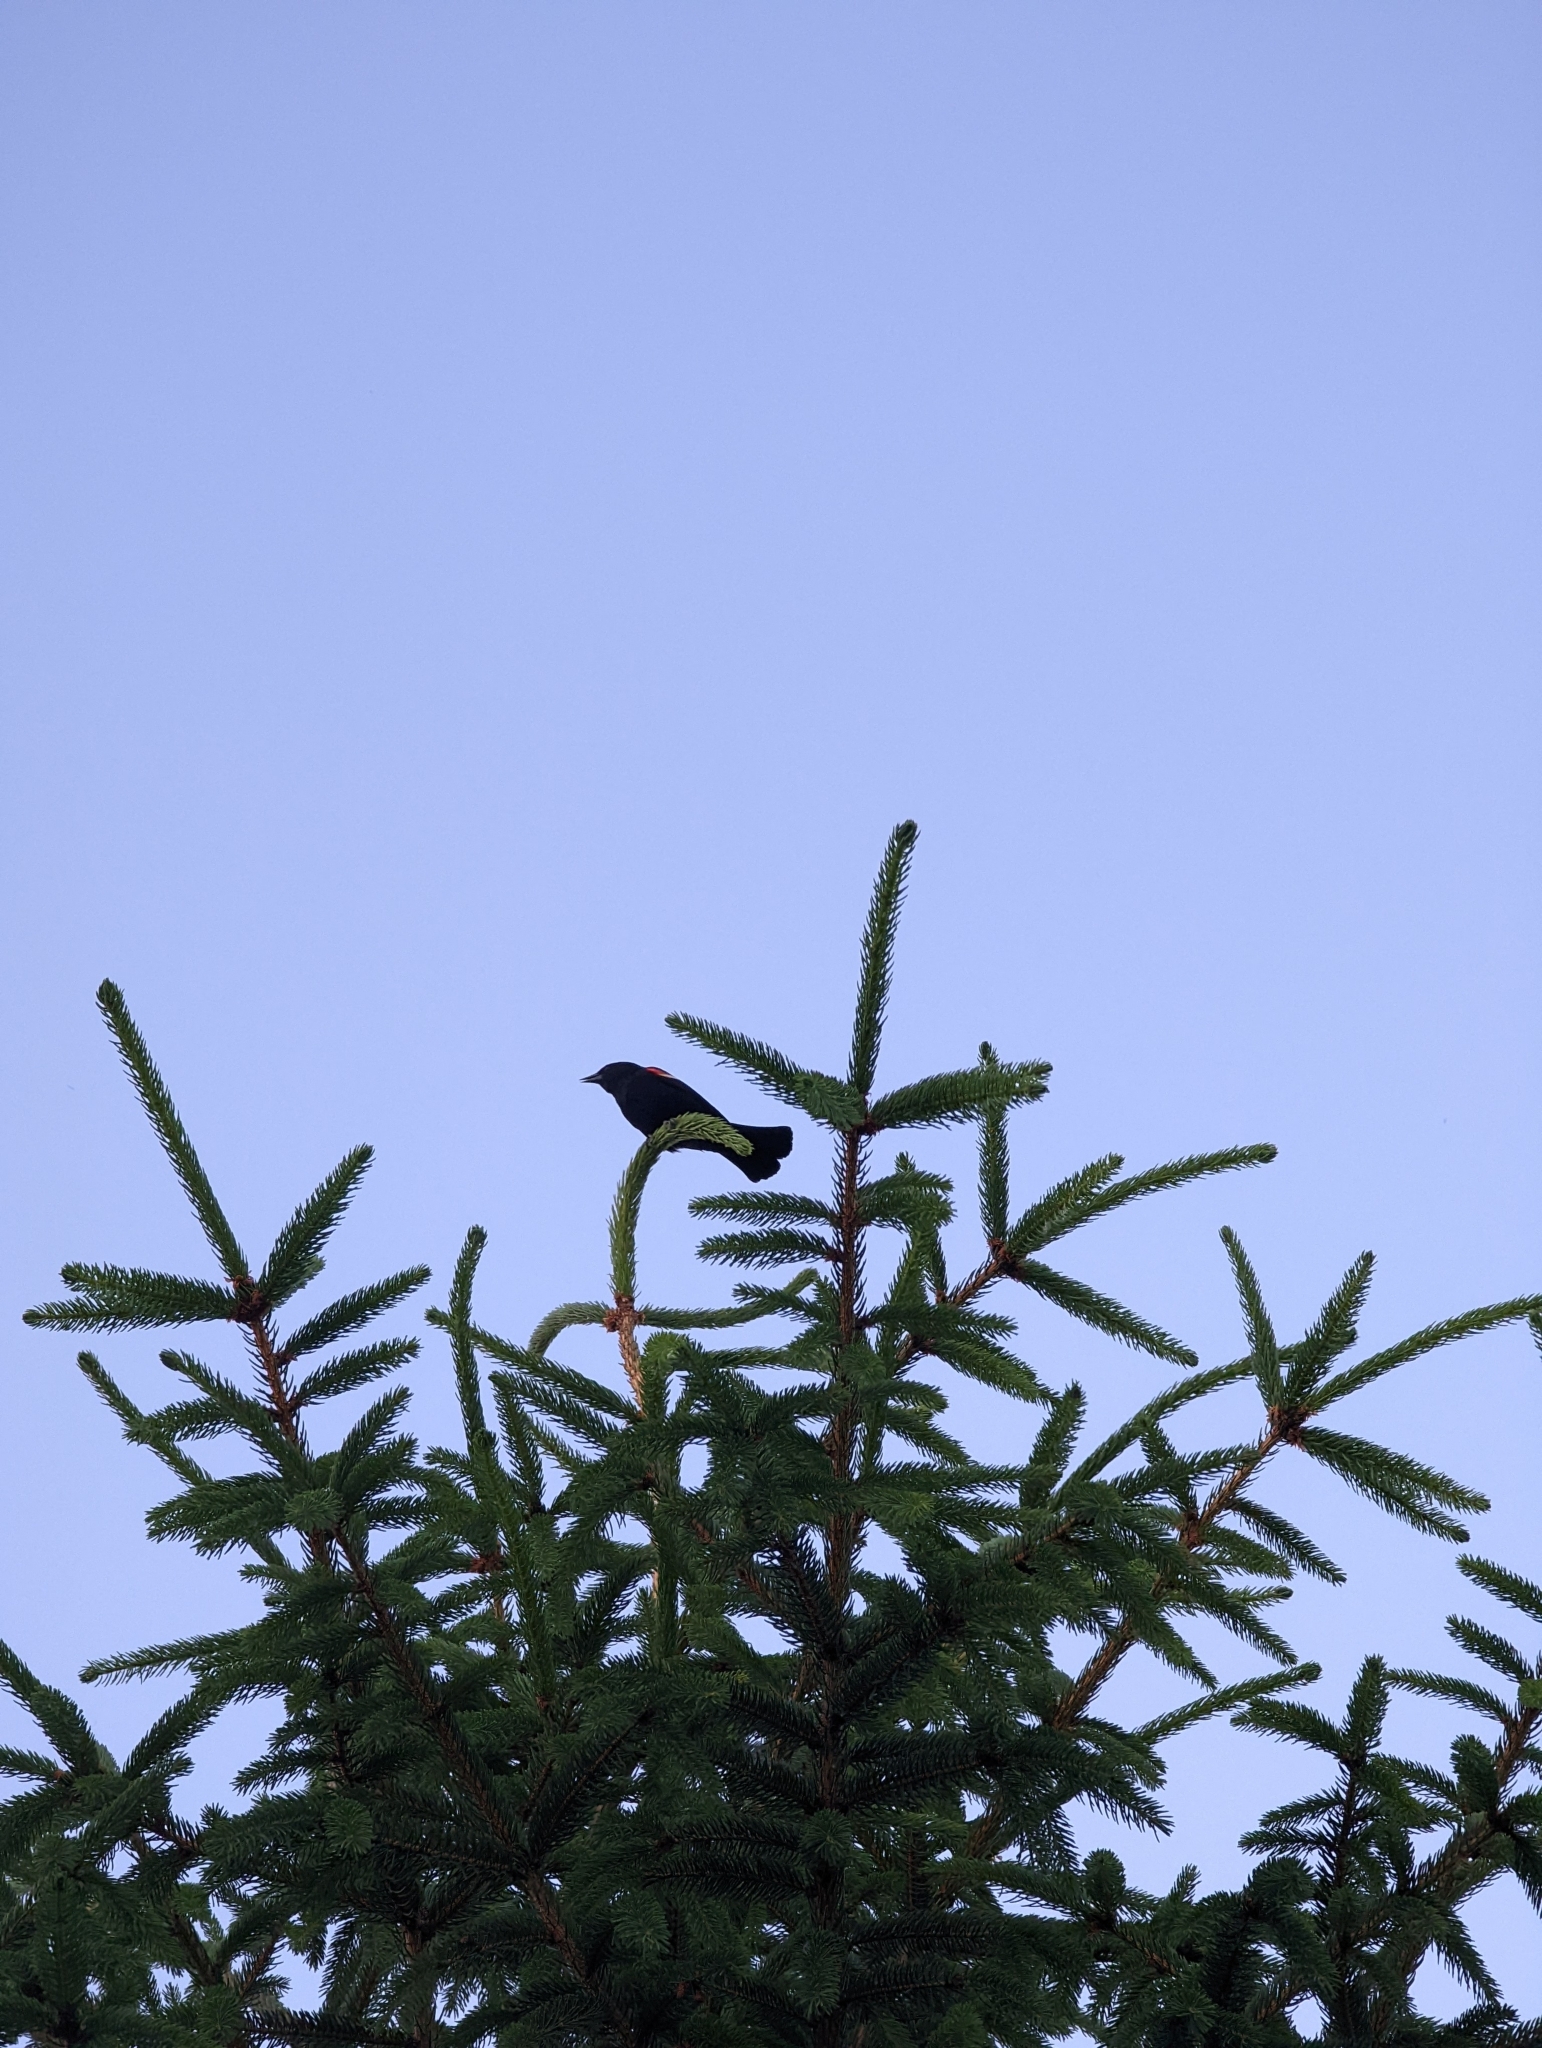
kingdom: Animalia
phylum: Chordata
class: Aves
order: Passeriformes
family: Icteridae
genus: Agelaius
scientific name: Agelaius phoeniceus
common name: Red-winged blackbird
